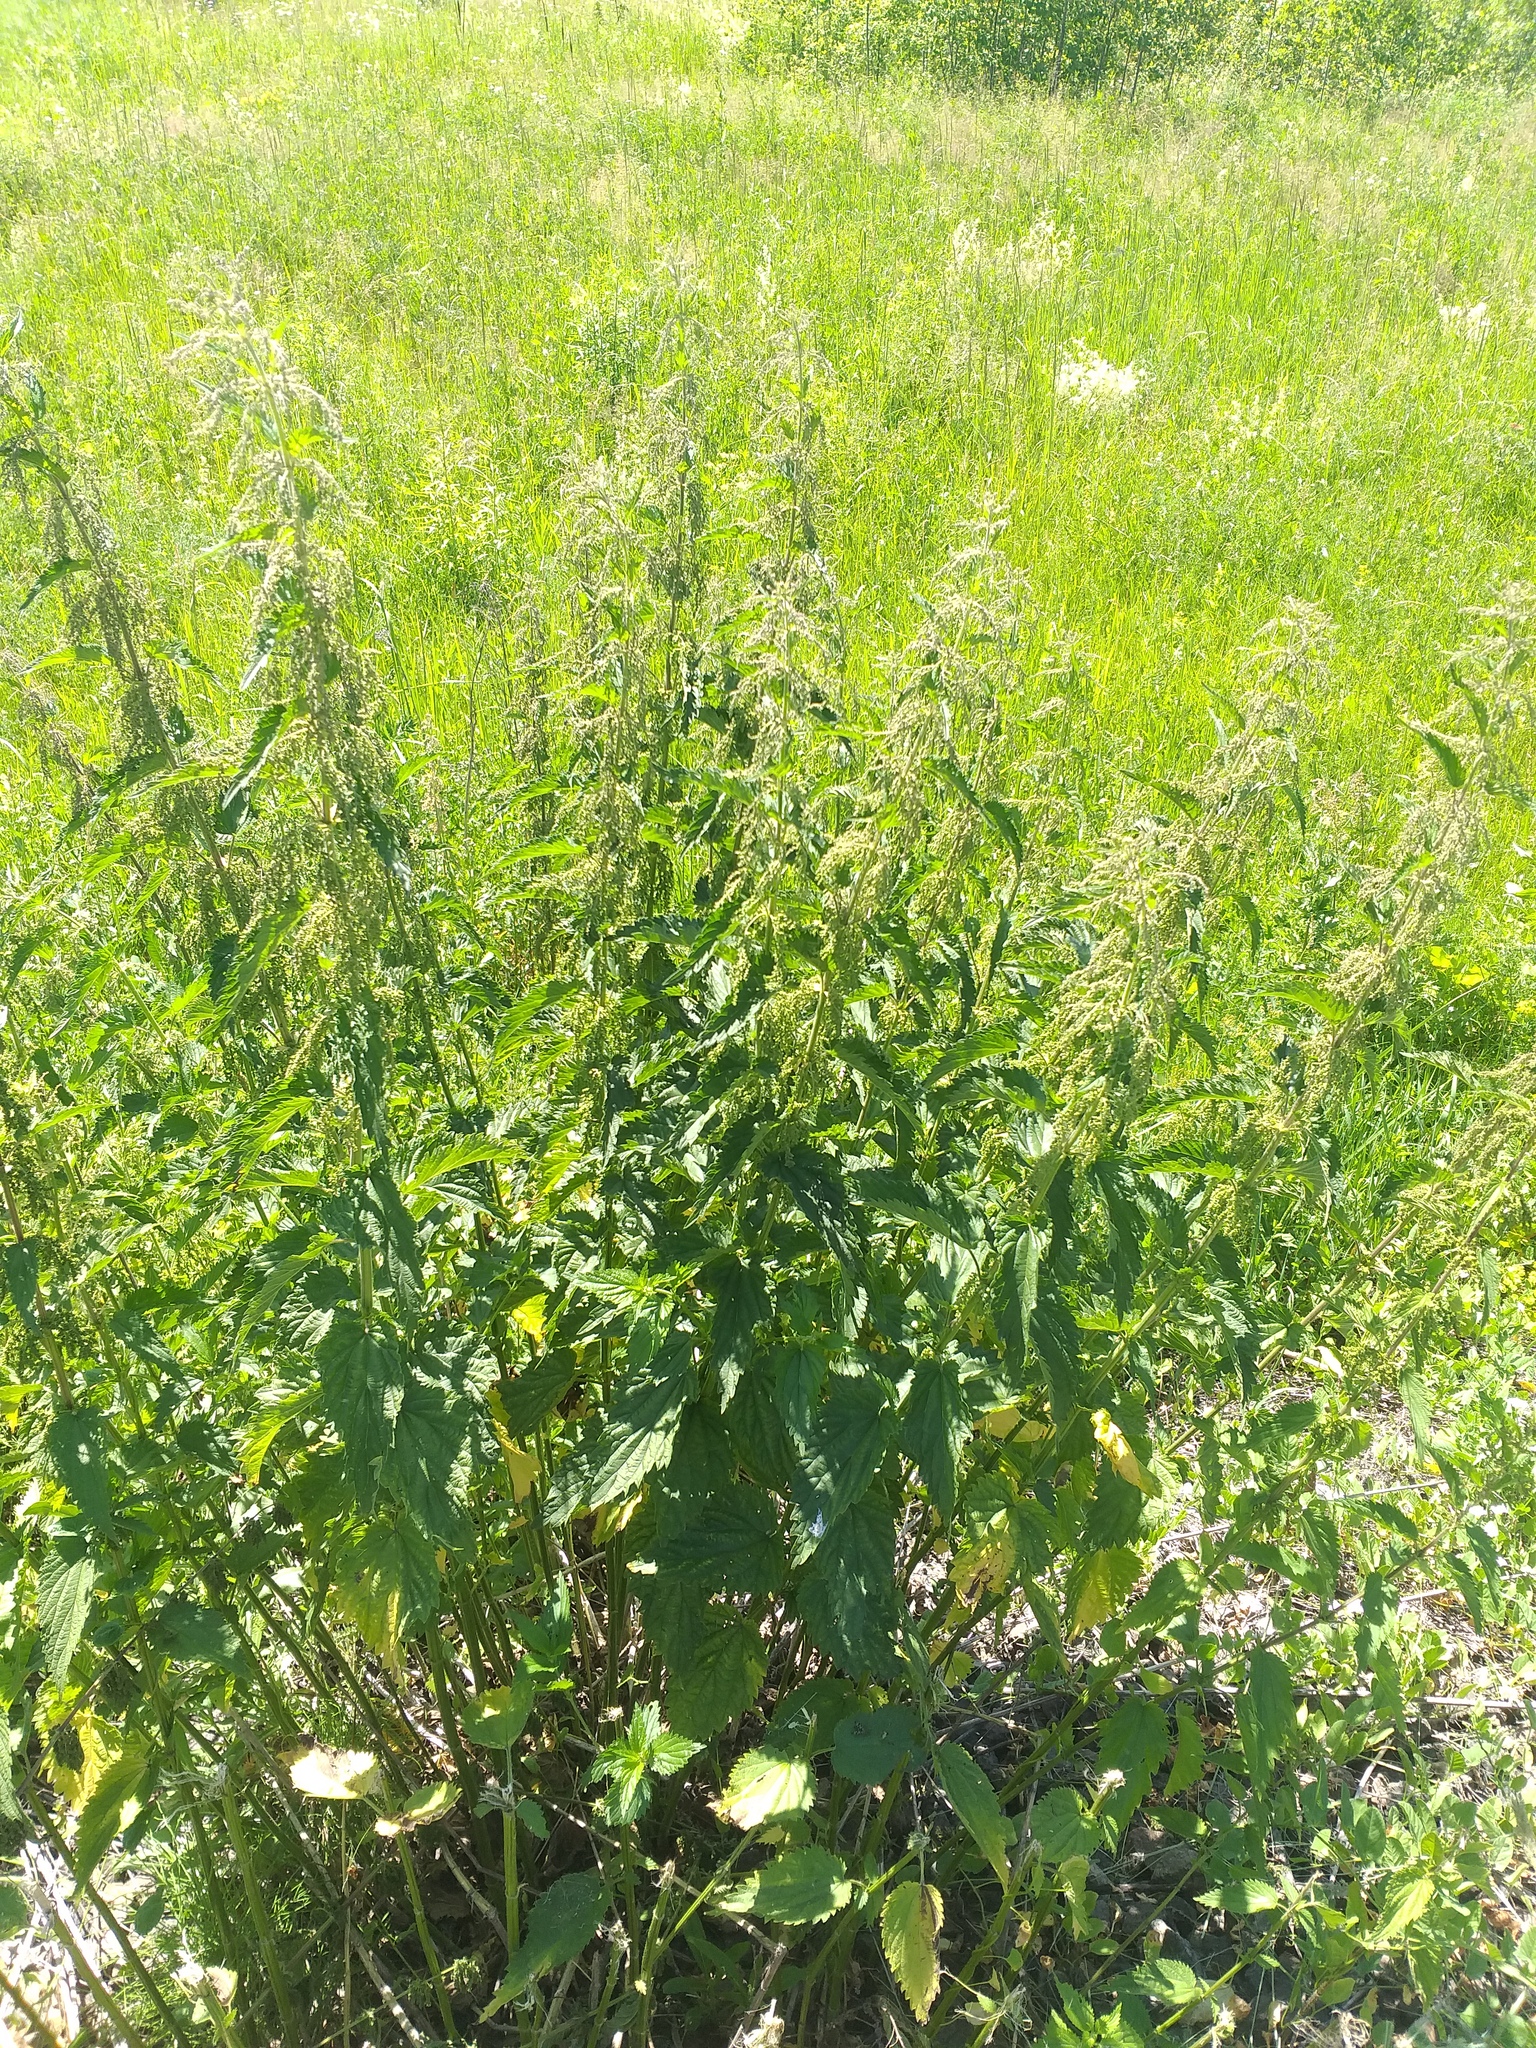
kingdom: Plantae
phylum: Tracheophyta
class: Magnoliopsida
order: Rosales
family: Urticaceae
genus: Urtica
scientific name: Urtica dioica
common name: Common nettle
